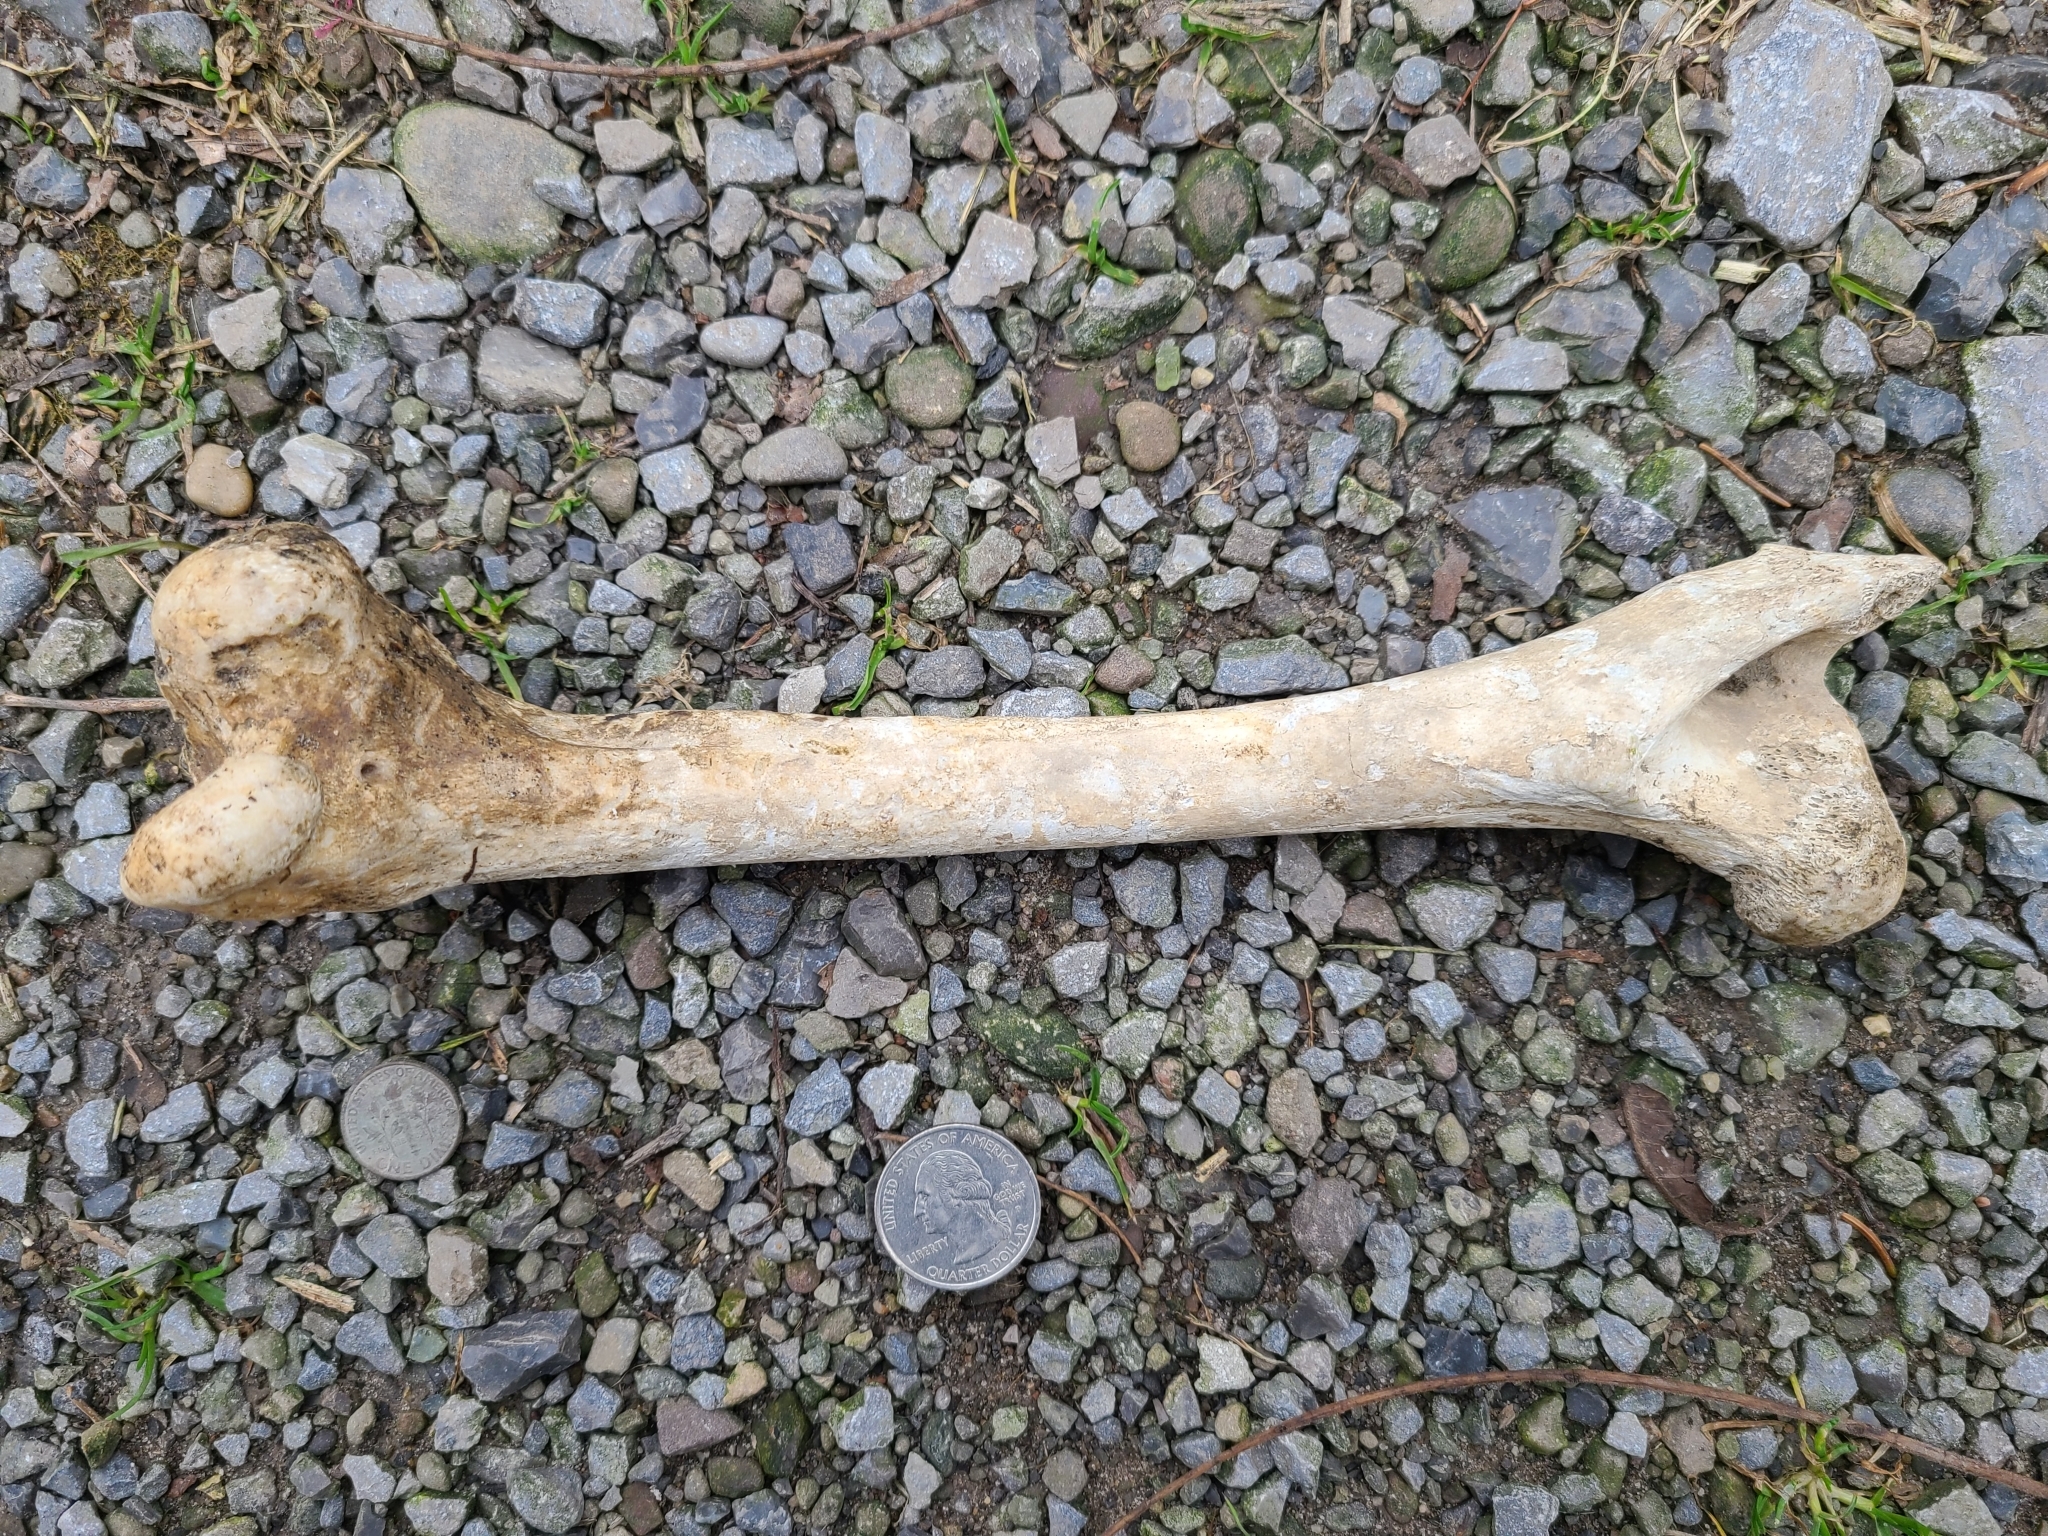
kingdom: Animalia
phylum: Chordata
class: Mammalia
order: Artiodactyla
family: Cervidae
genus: Odocoileus
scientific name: Odocoileus virginianus
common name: White-tailed deer
